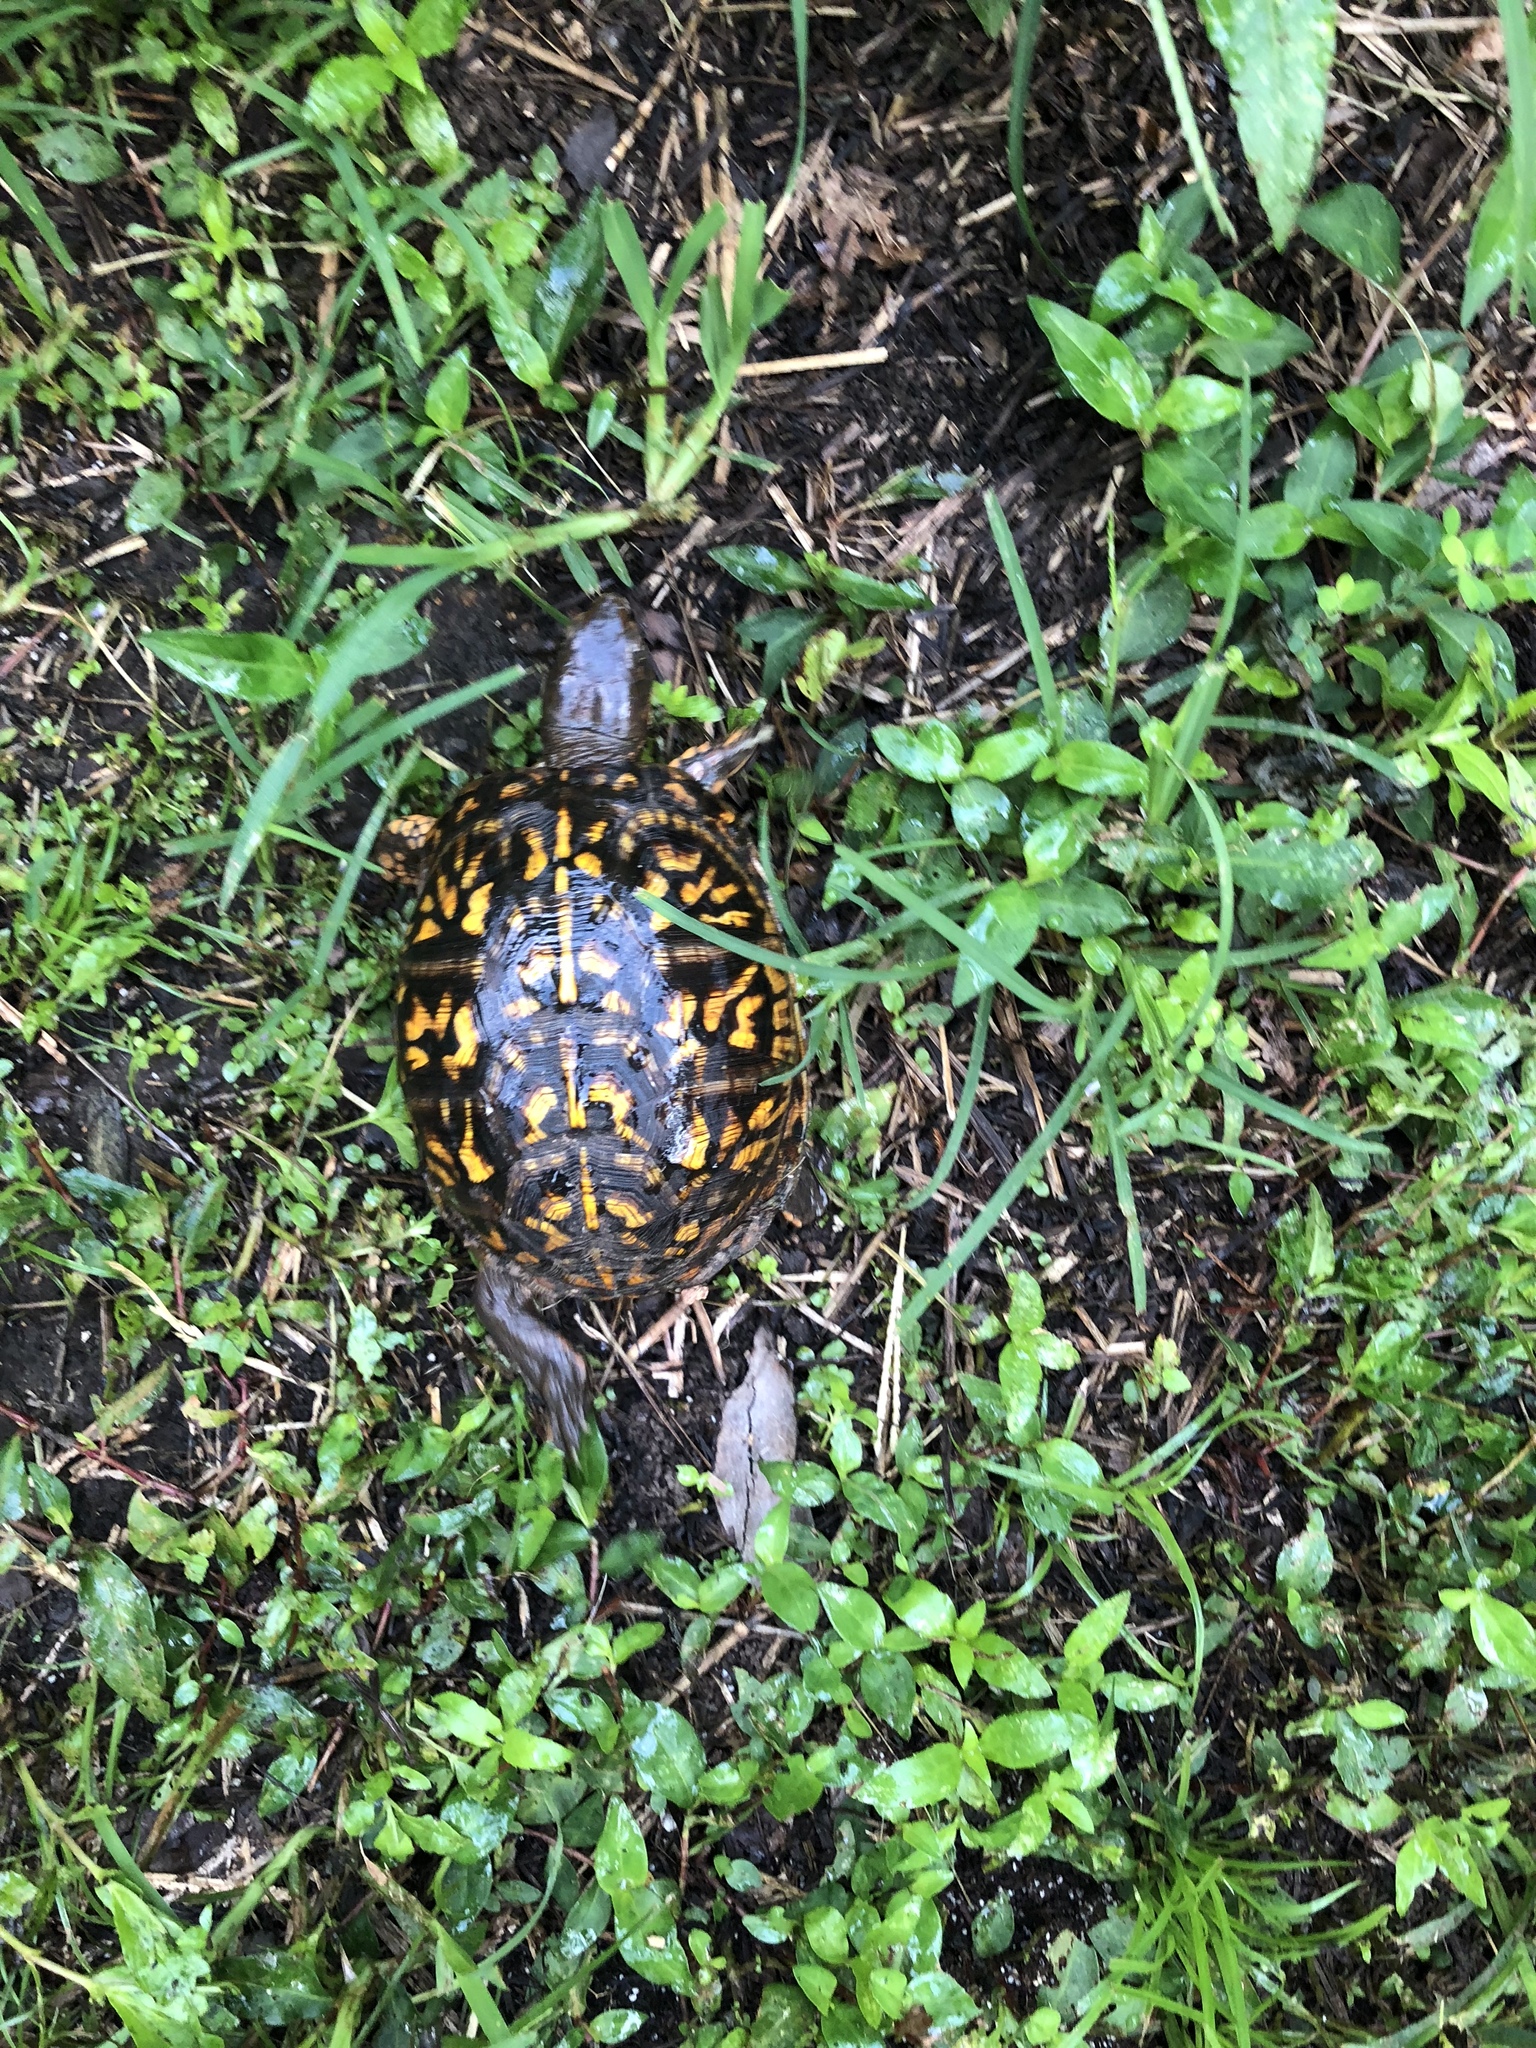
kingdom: Animalia
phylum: Chordata
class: Testudines
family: Emydidae
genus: Terrapene
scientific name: Terrapene carolina
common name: Common box turtle
